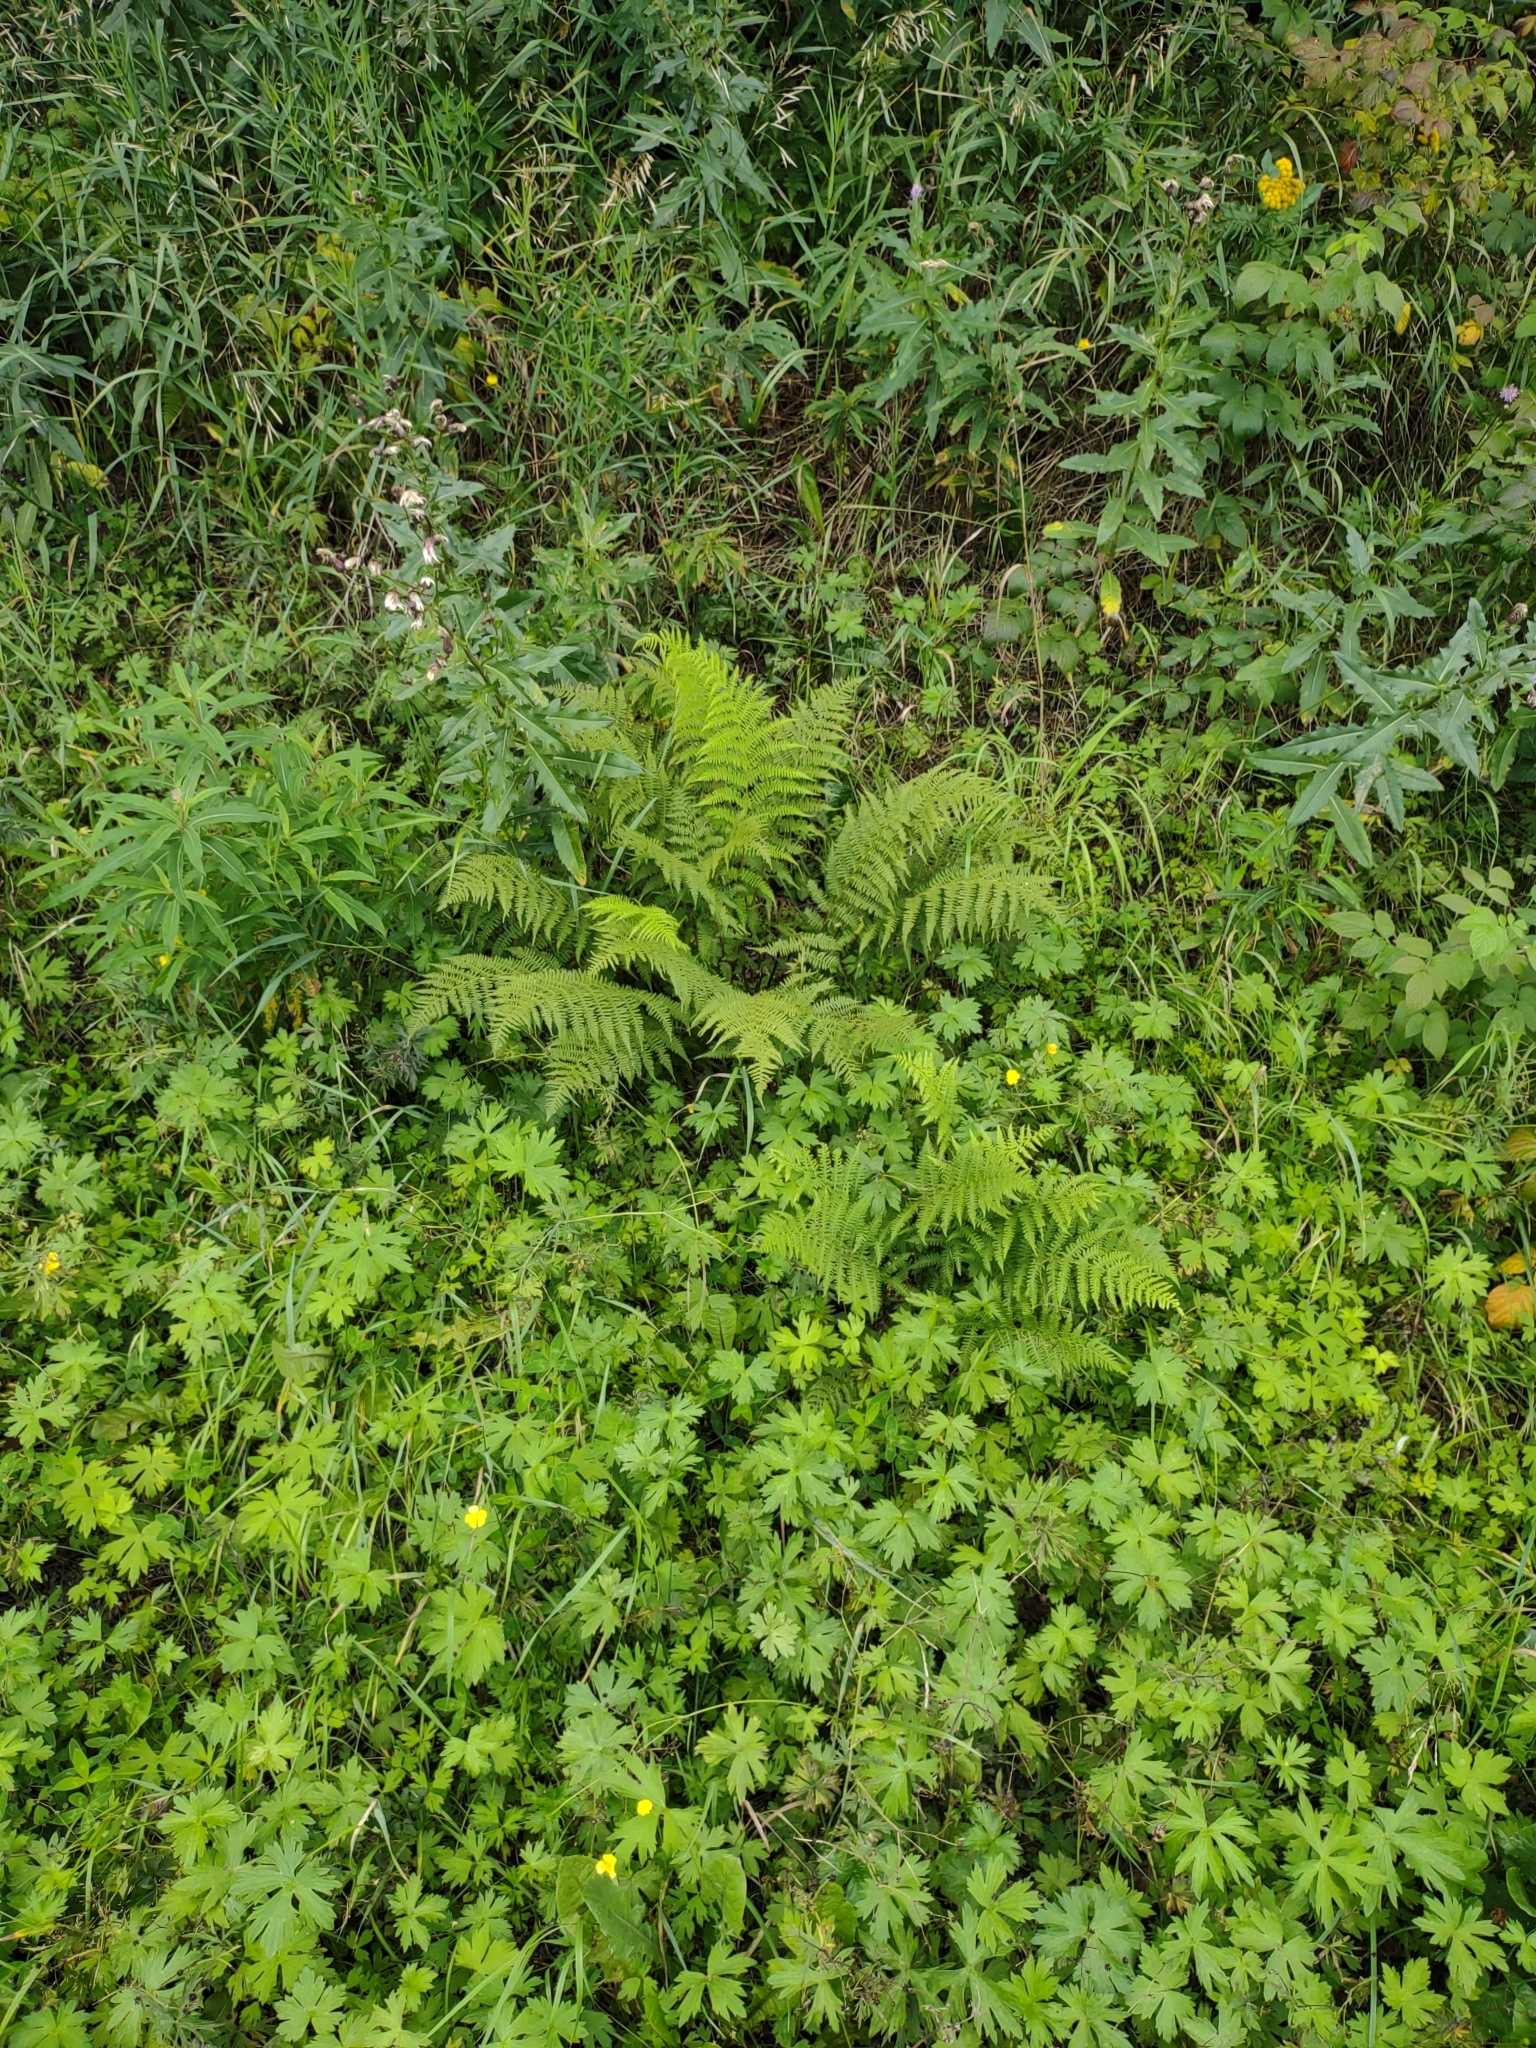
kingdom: Plantae
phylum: Tracheophyta
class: Polypodiopsida
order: Polypodiales
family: Athyriaceae
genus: Athyrium
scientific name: Athyrium filix-femina
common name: Lady fern
